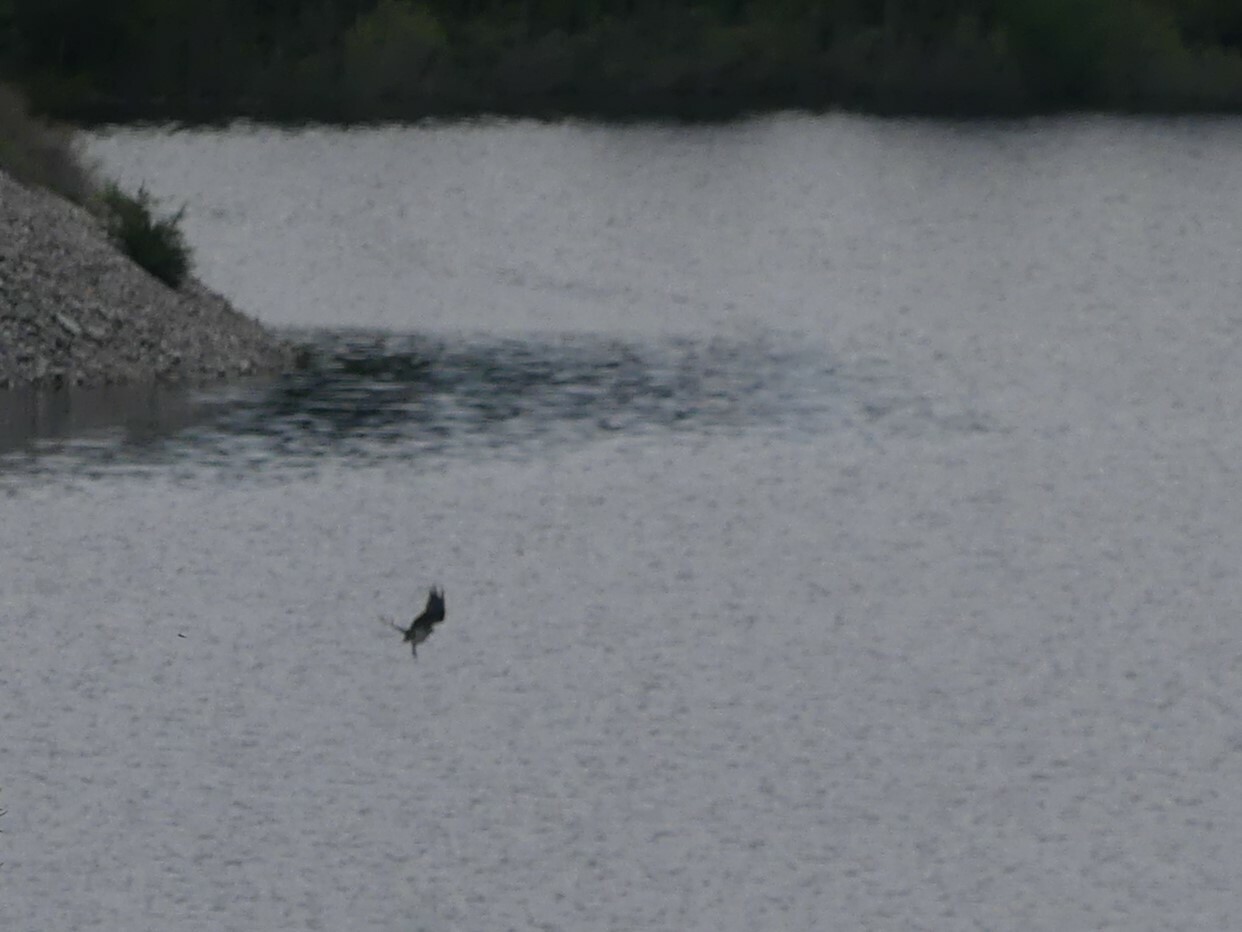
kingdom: Animalia
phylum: Chordata
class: Aves
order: Accipitriformes
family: Pandionidae
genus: Pandion
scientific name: Pandion haliaetus
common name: Osprey
